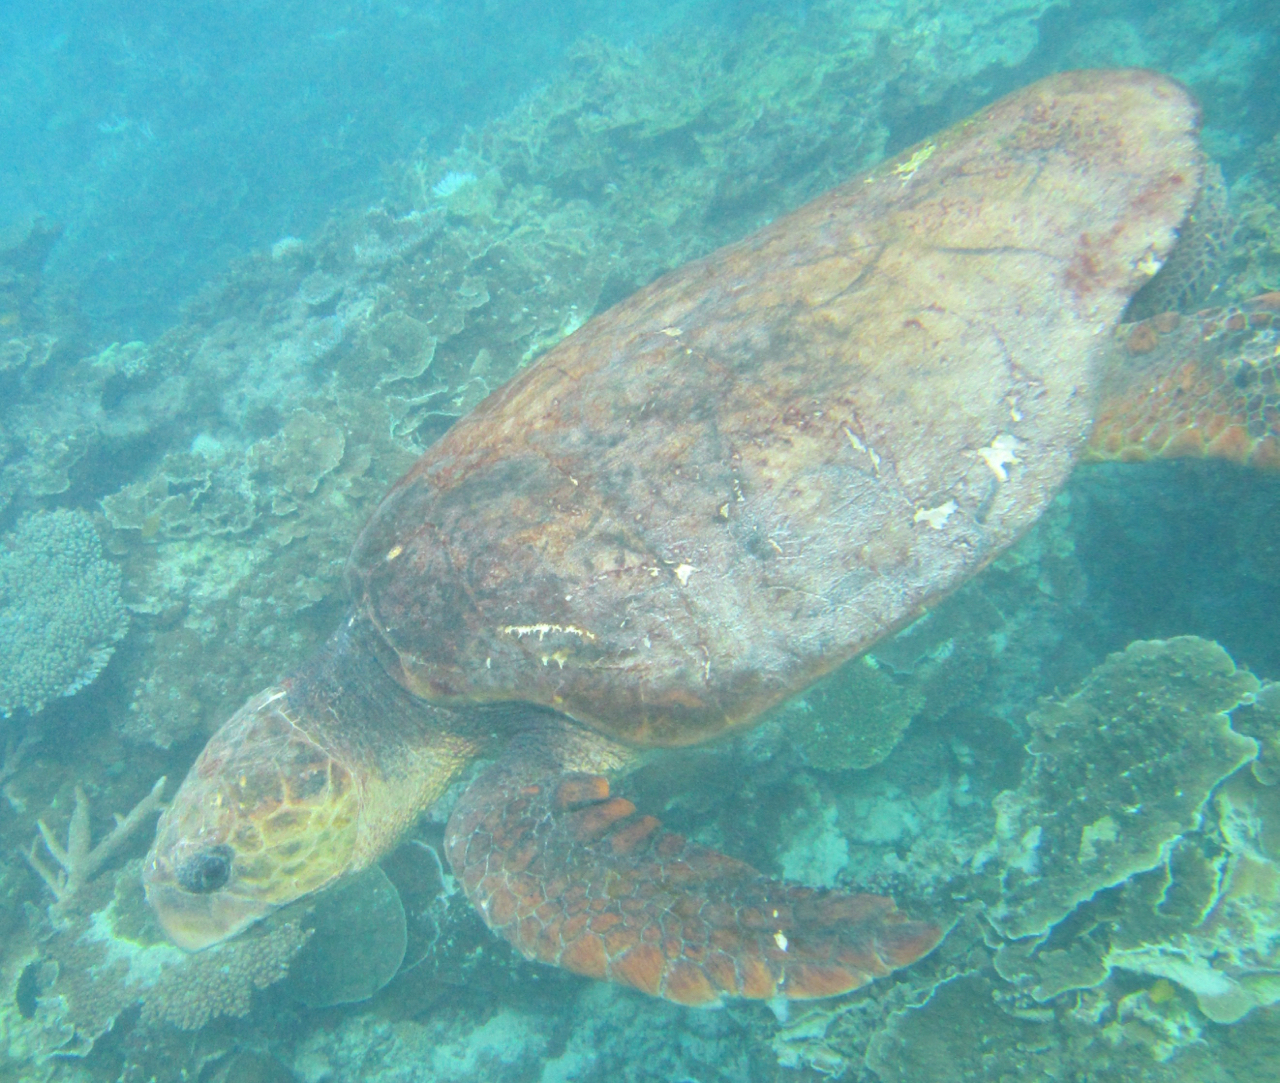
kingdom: Animalia
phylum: Chordata
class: Testudines
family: Cheloniidae
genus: Caretta
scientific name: Caretta caretta
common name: Loggerhead sea turtle
